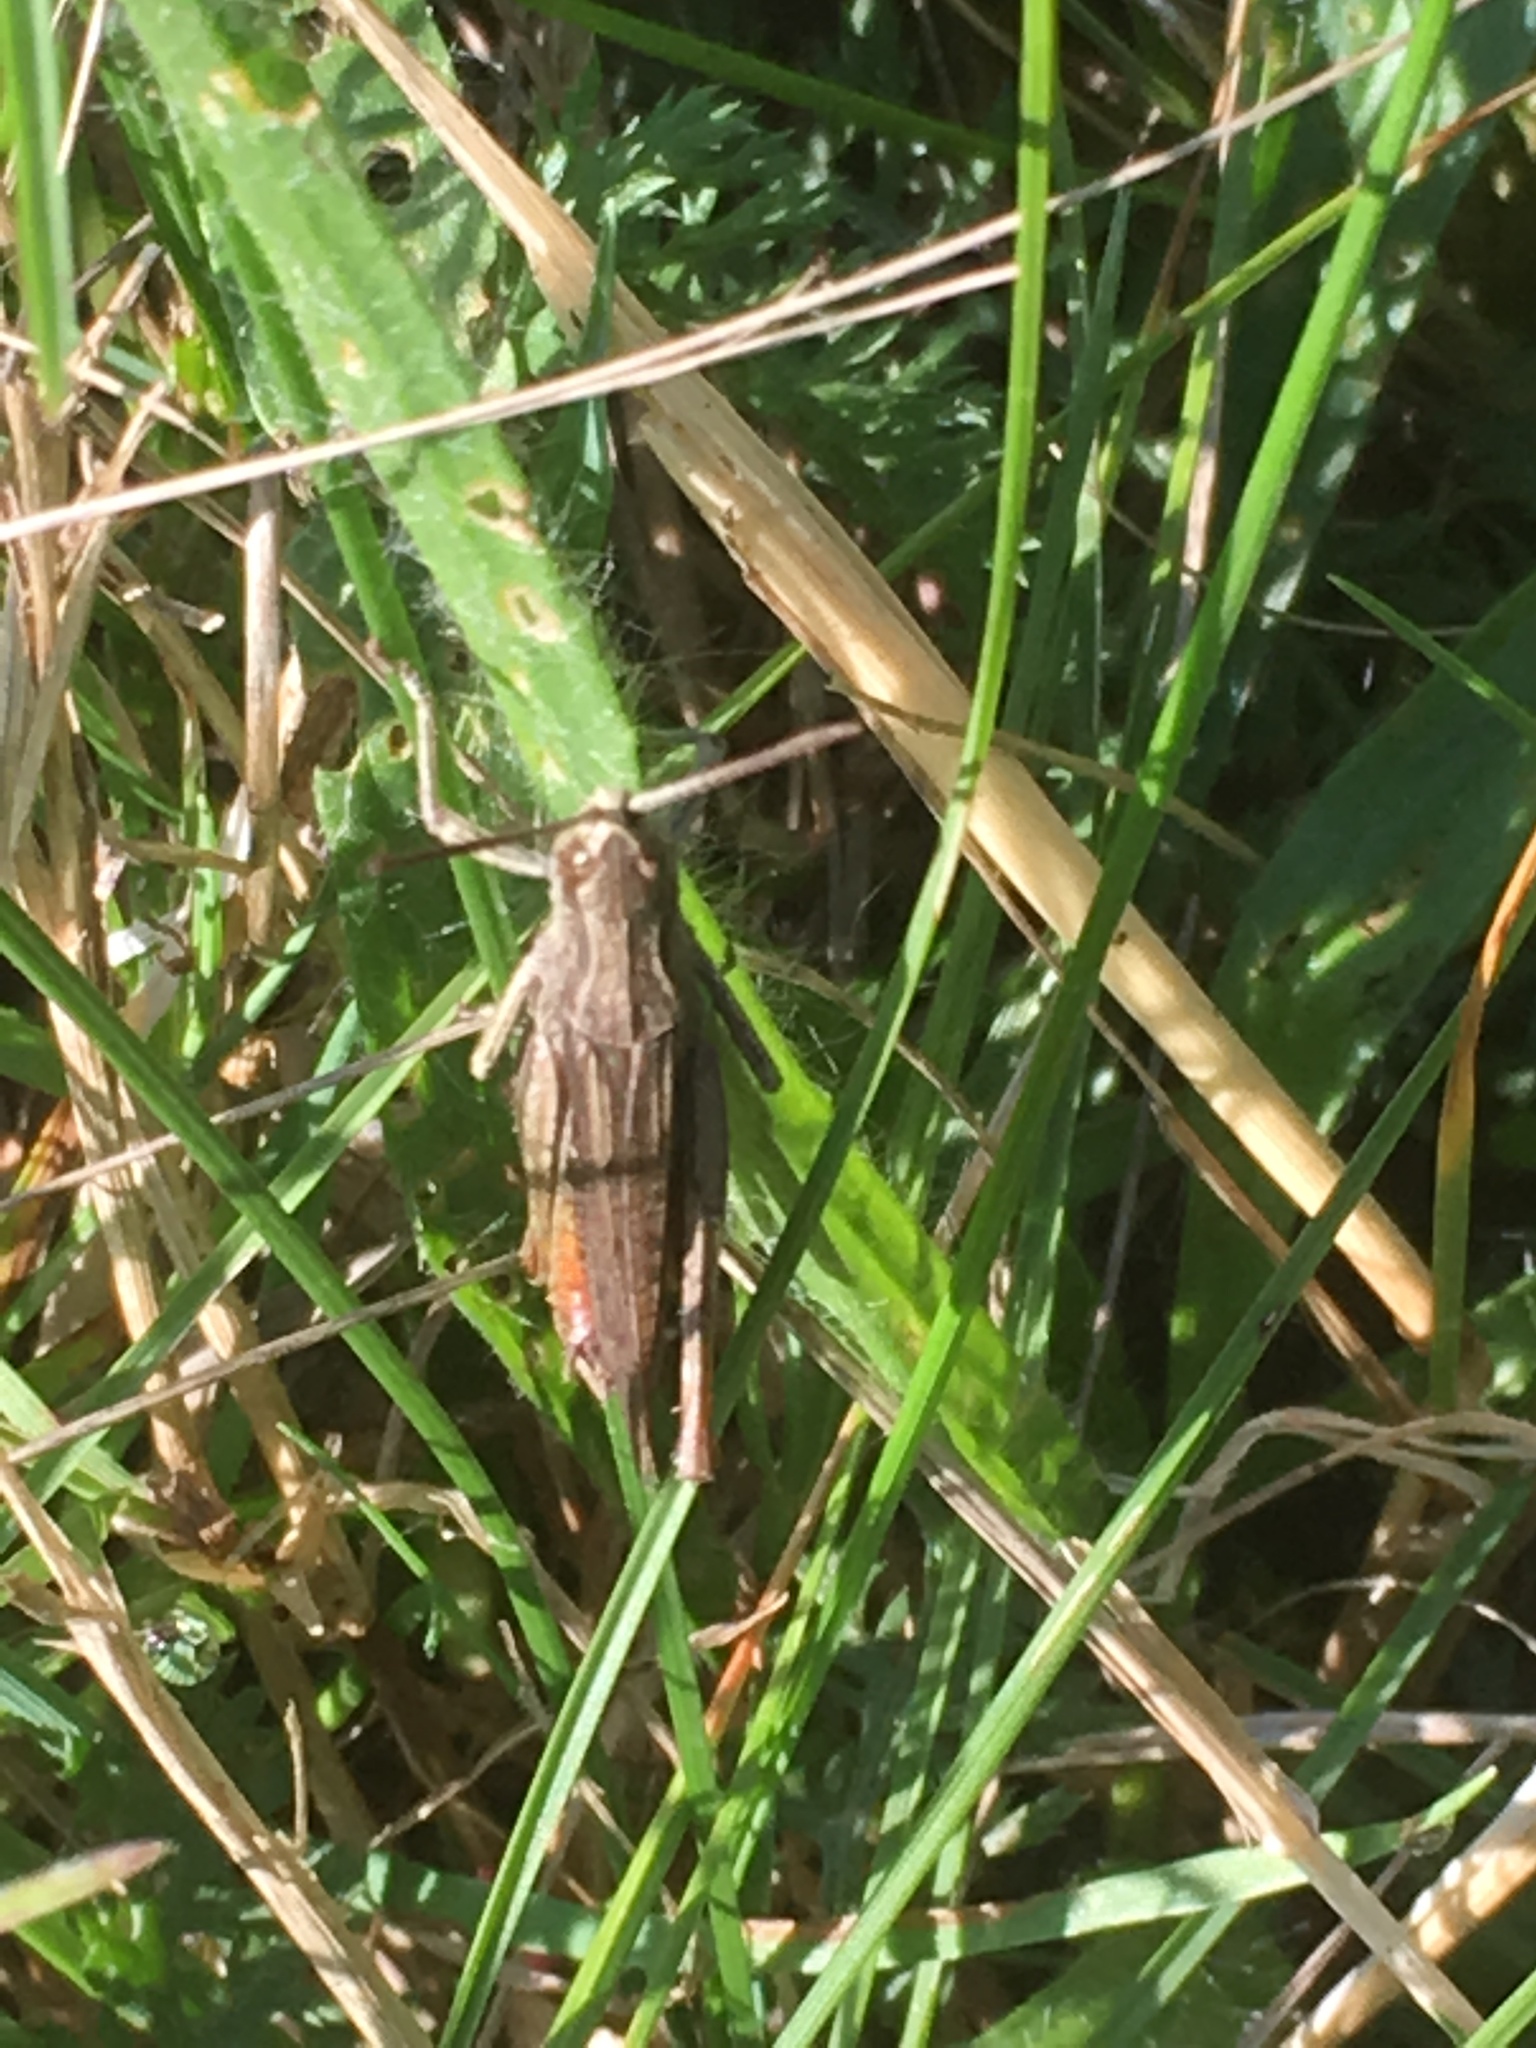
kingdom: Animalia
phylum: Arthropoda
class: Insecta
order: Orthoptera
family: Acrididae
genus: Chorthippus
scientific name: Chorthippus dorsatus
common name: Steppe grasshopper
